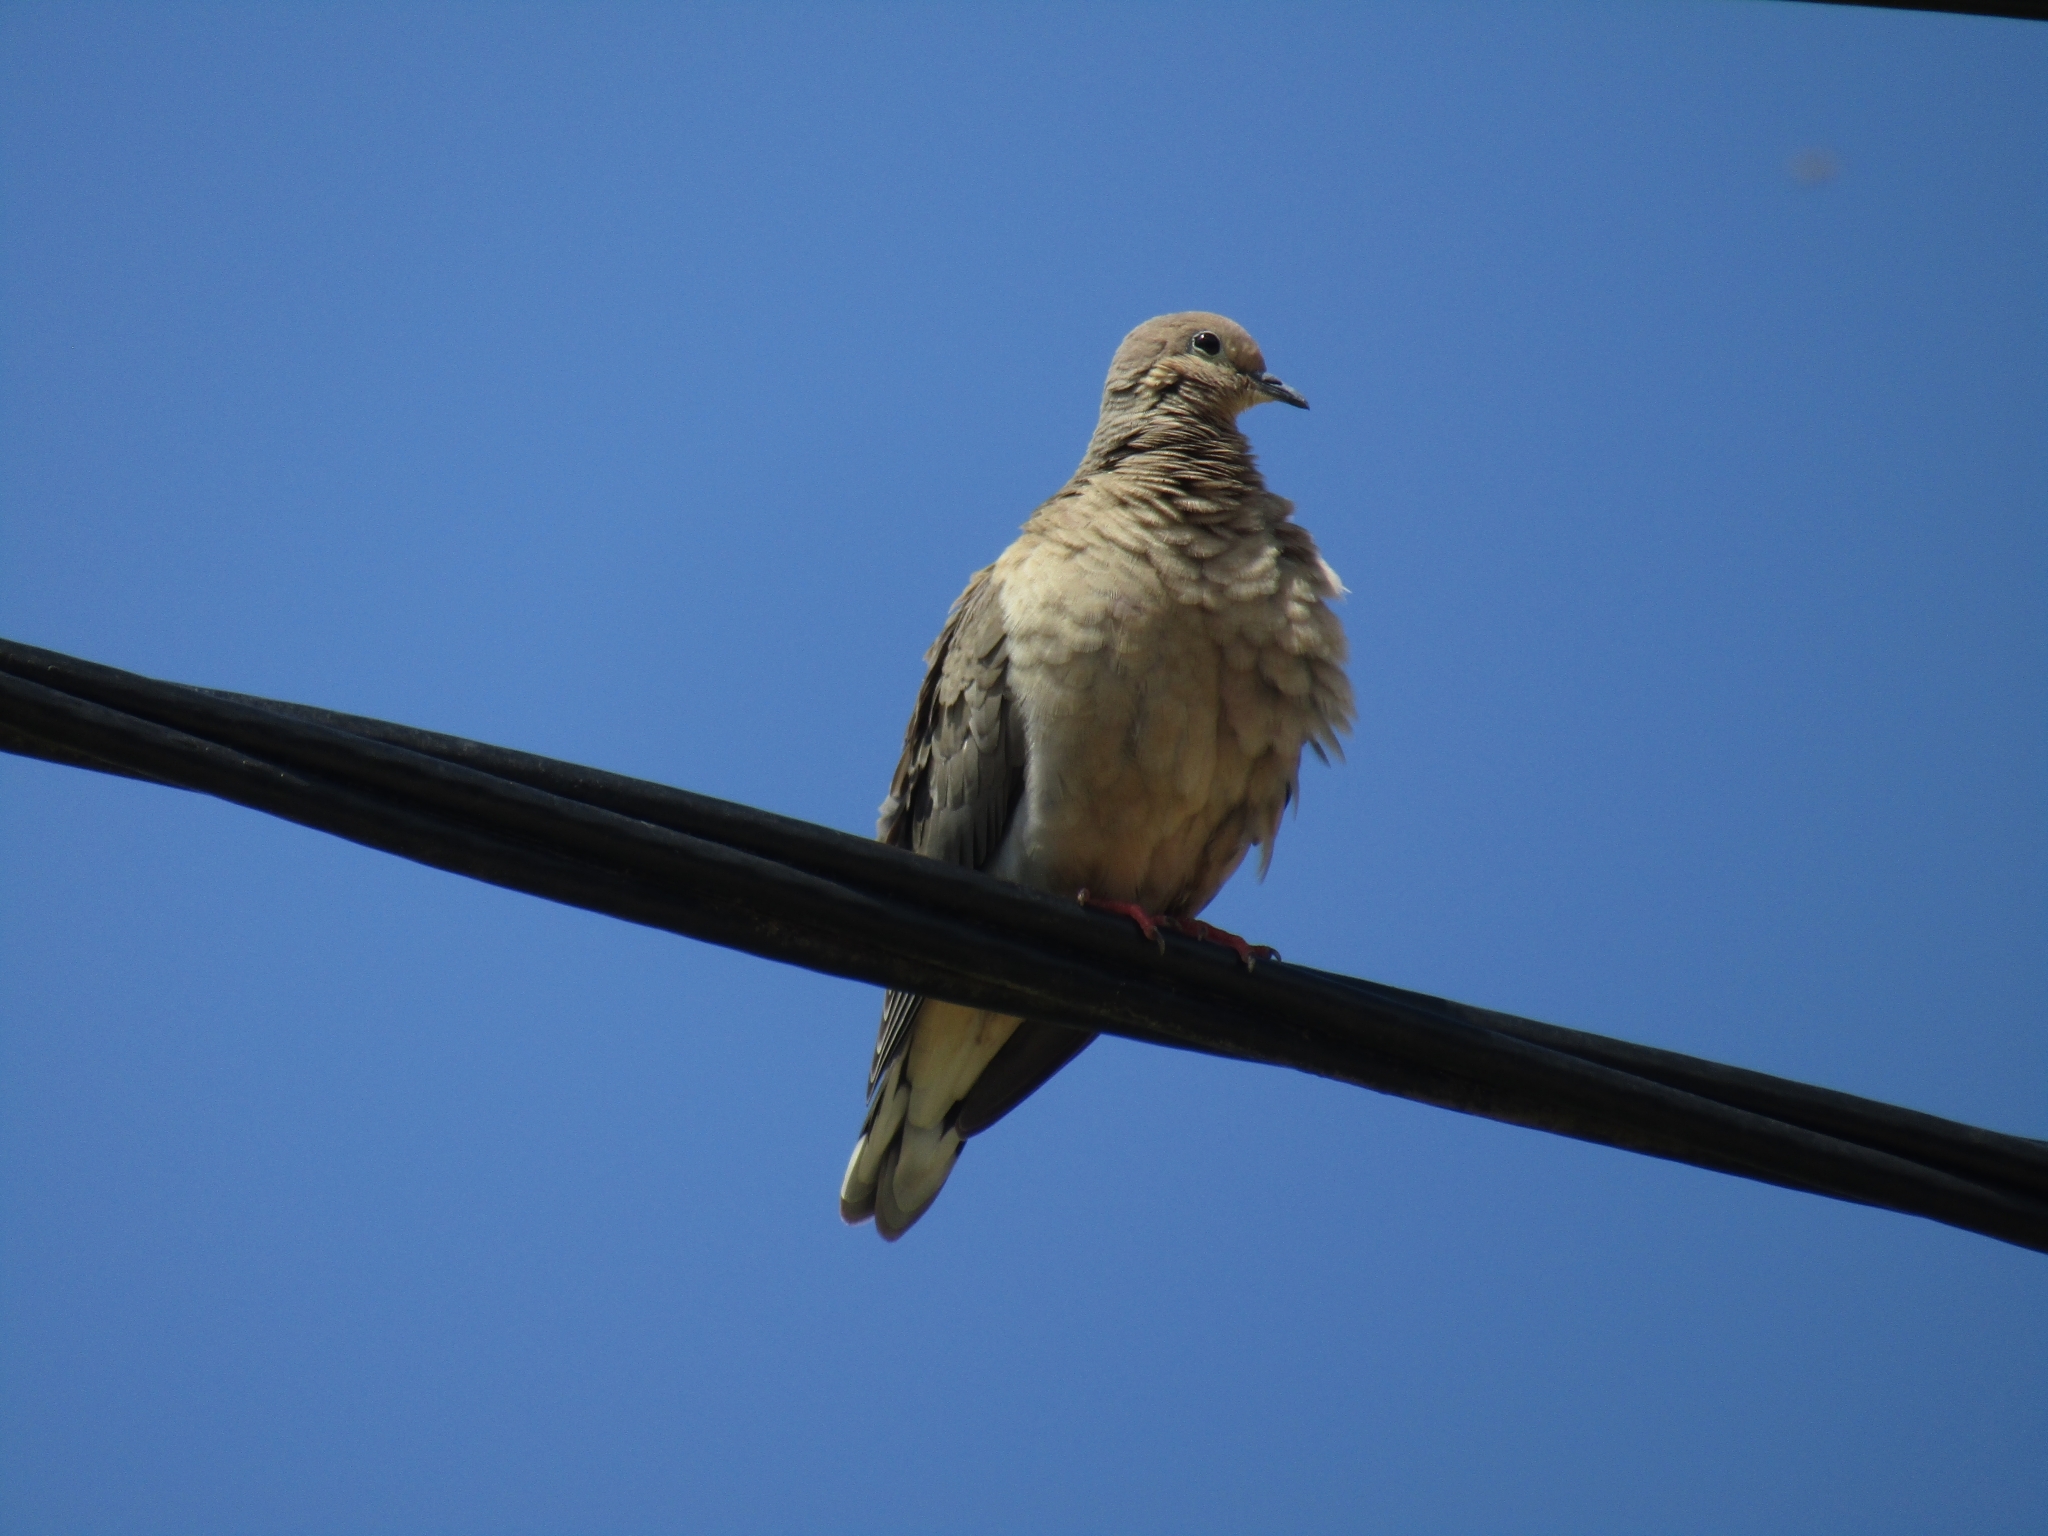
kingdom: Animalia
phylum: Chordata
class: Aves
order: Columbiformes
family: Columbidae
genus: Zenaida
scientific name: Zenaida auriculata
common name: Eared dove
